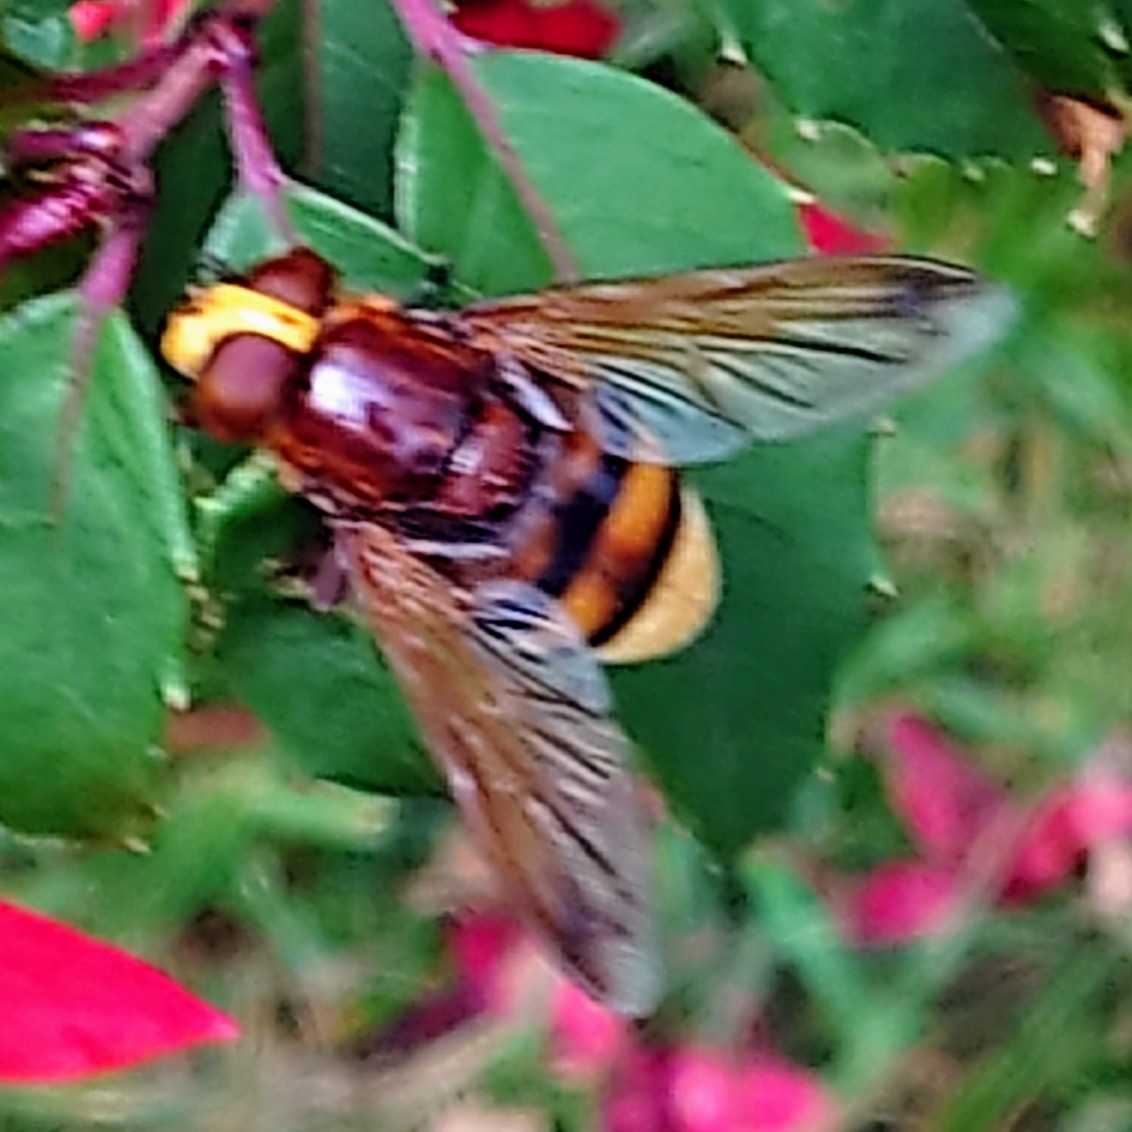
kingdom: Animalia
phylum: Arthropoda
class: Insecta
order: Diptera
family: Syrphidae
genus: Volucella
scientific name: Volucella zonaria
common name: Hornet hoverfly
